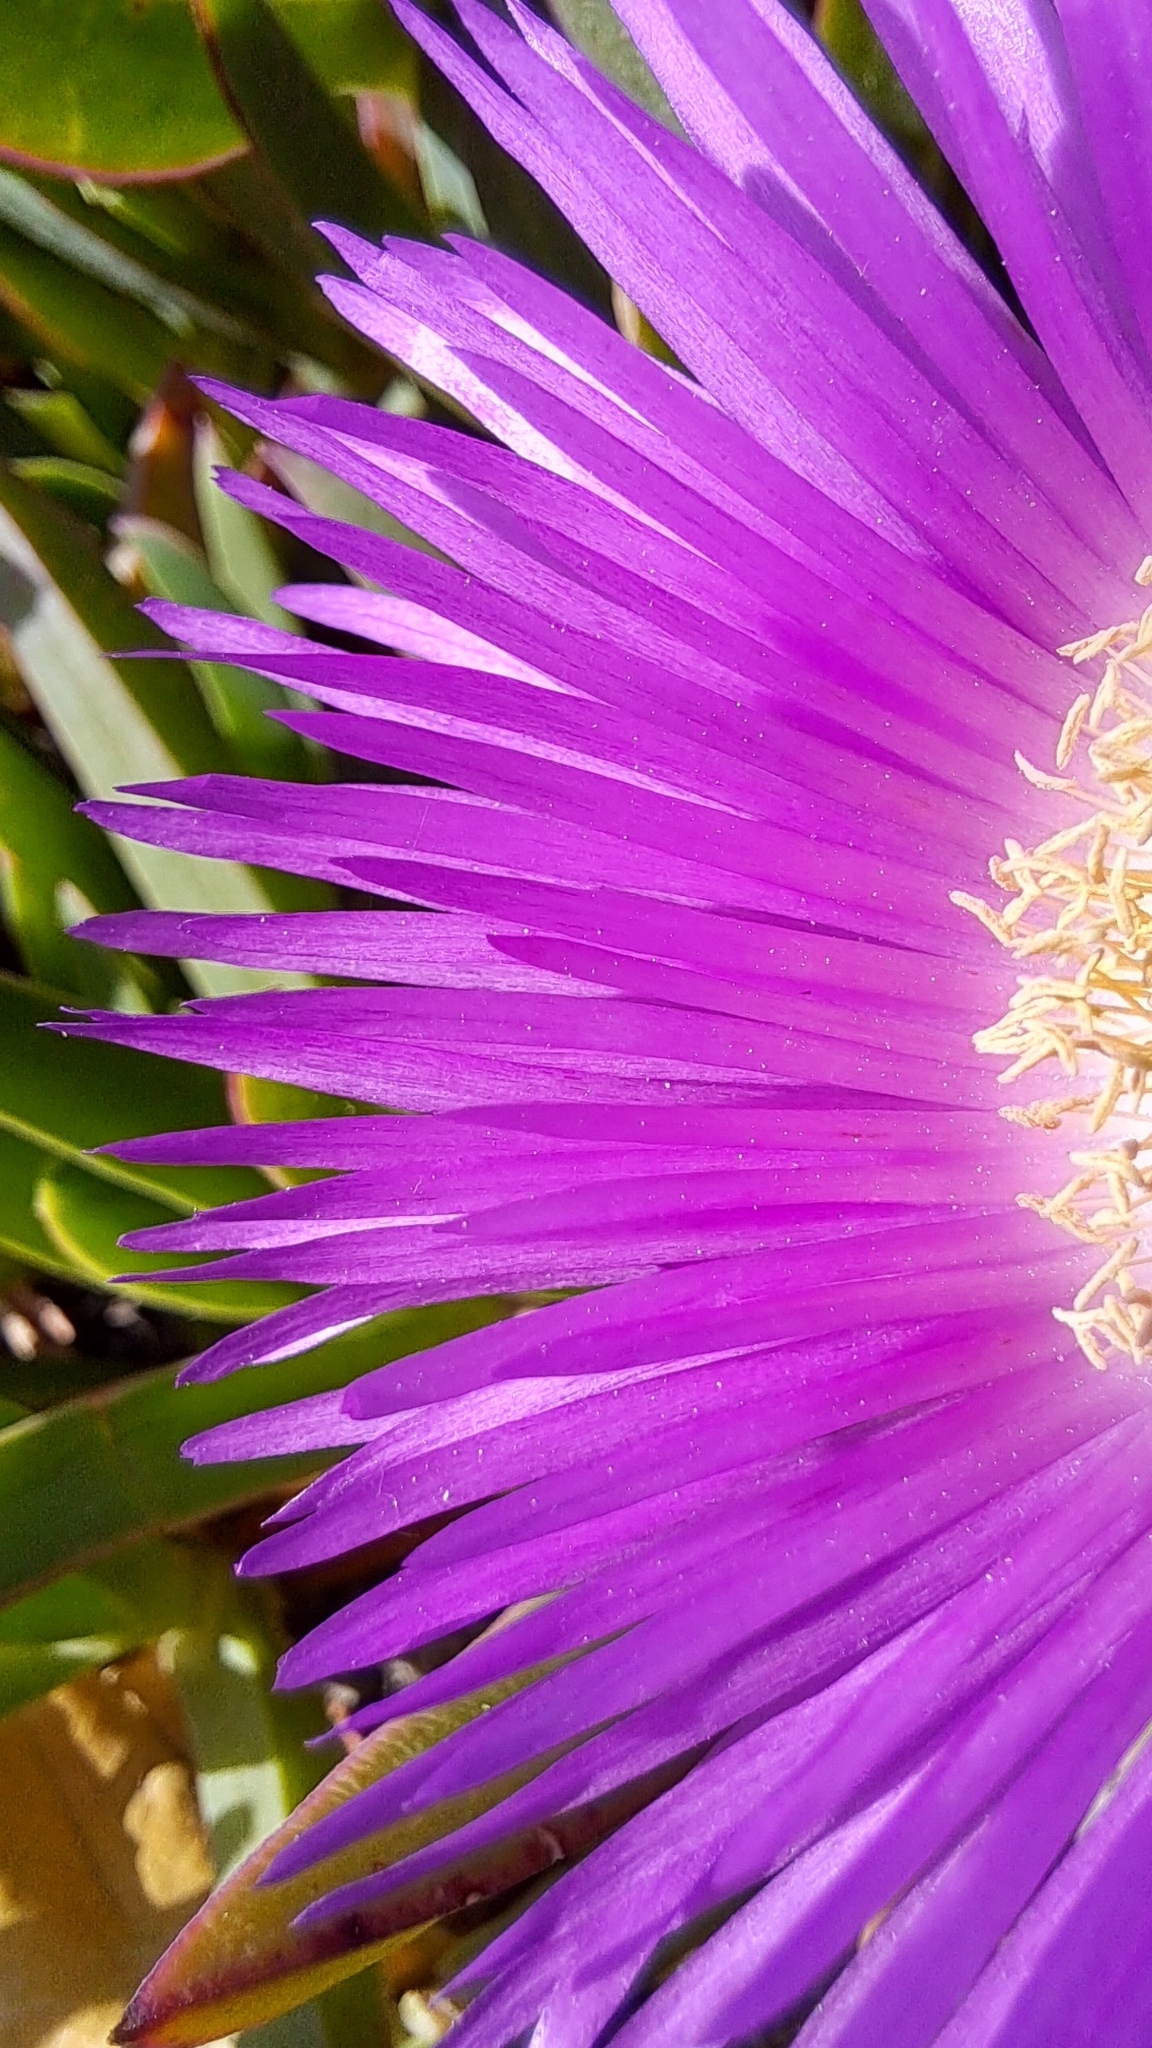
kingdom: Plantae
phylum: Tracheophyta
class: Magnoliopsida
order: Caryophyllales
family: Aizoaceae
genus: Carpobrotus
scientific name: Carpobrotus acinaciformis
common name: Sally-my-handsome
